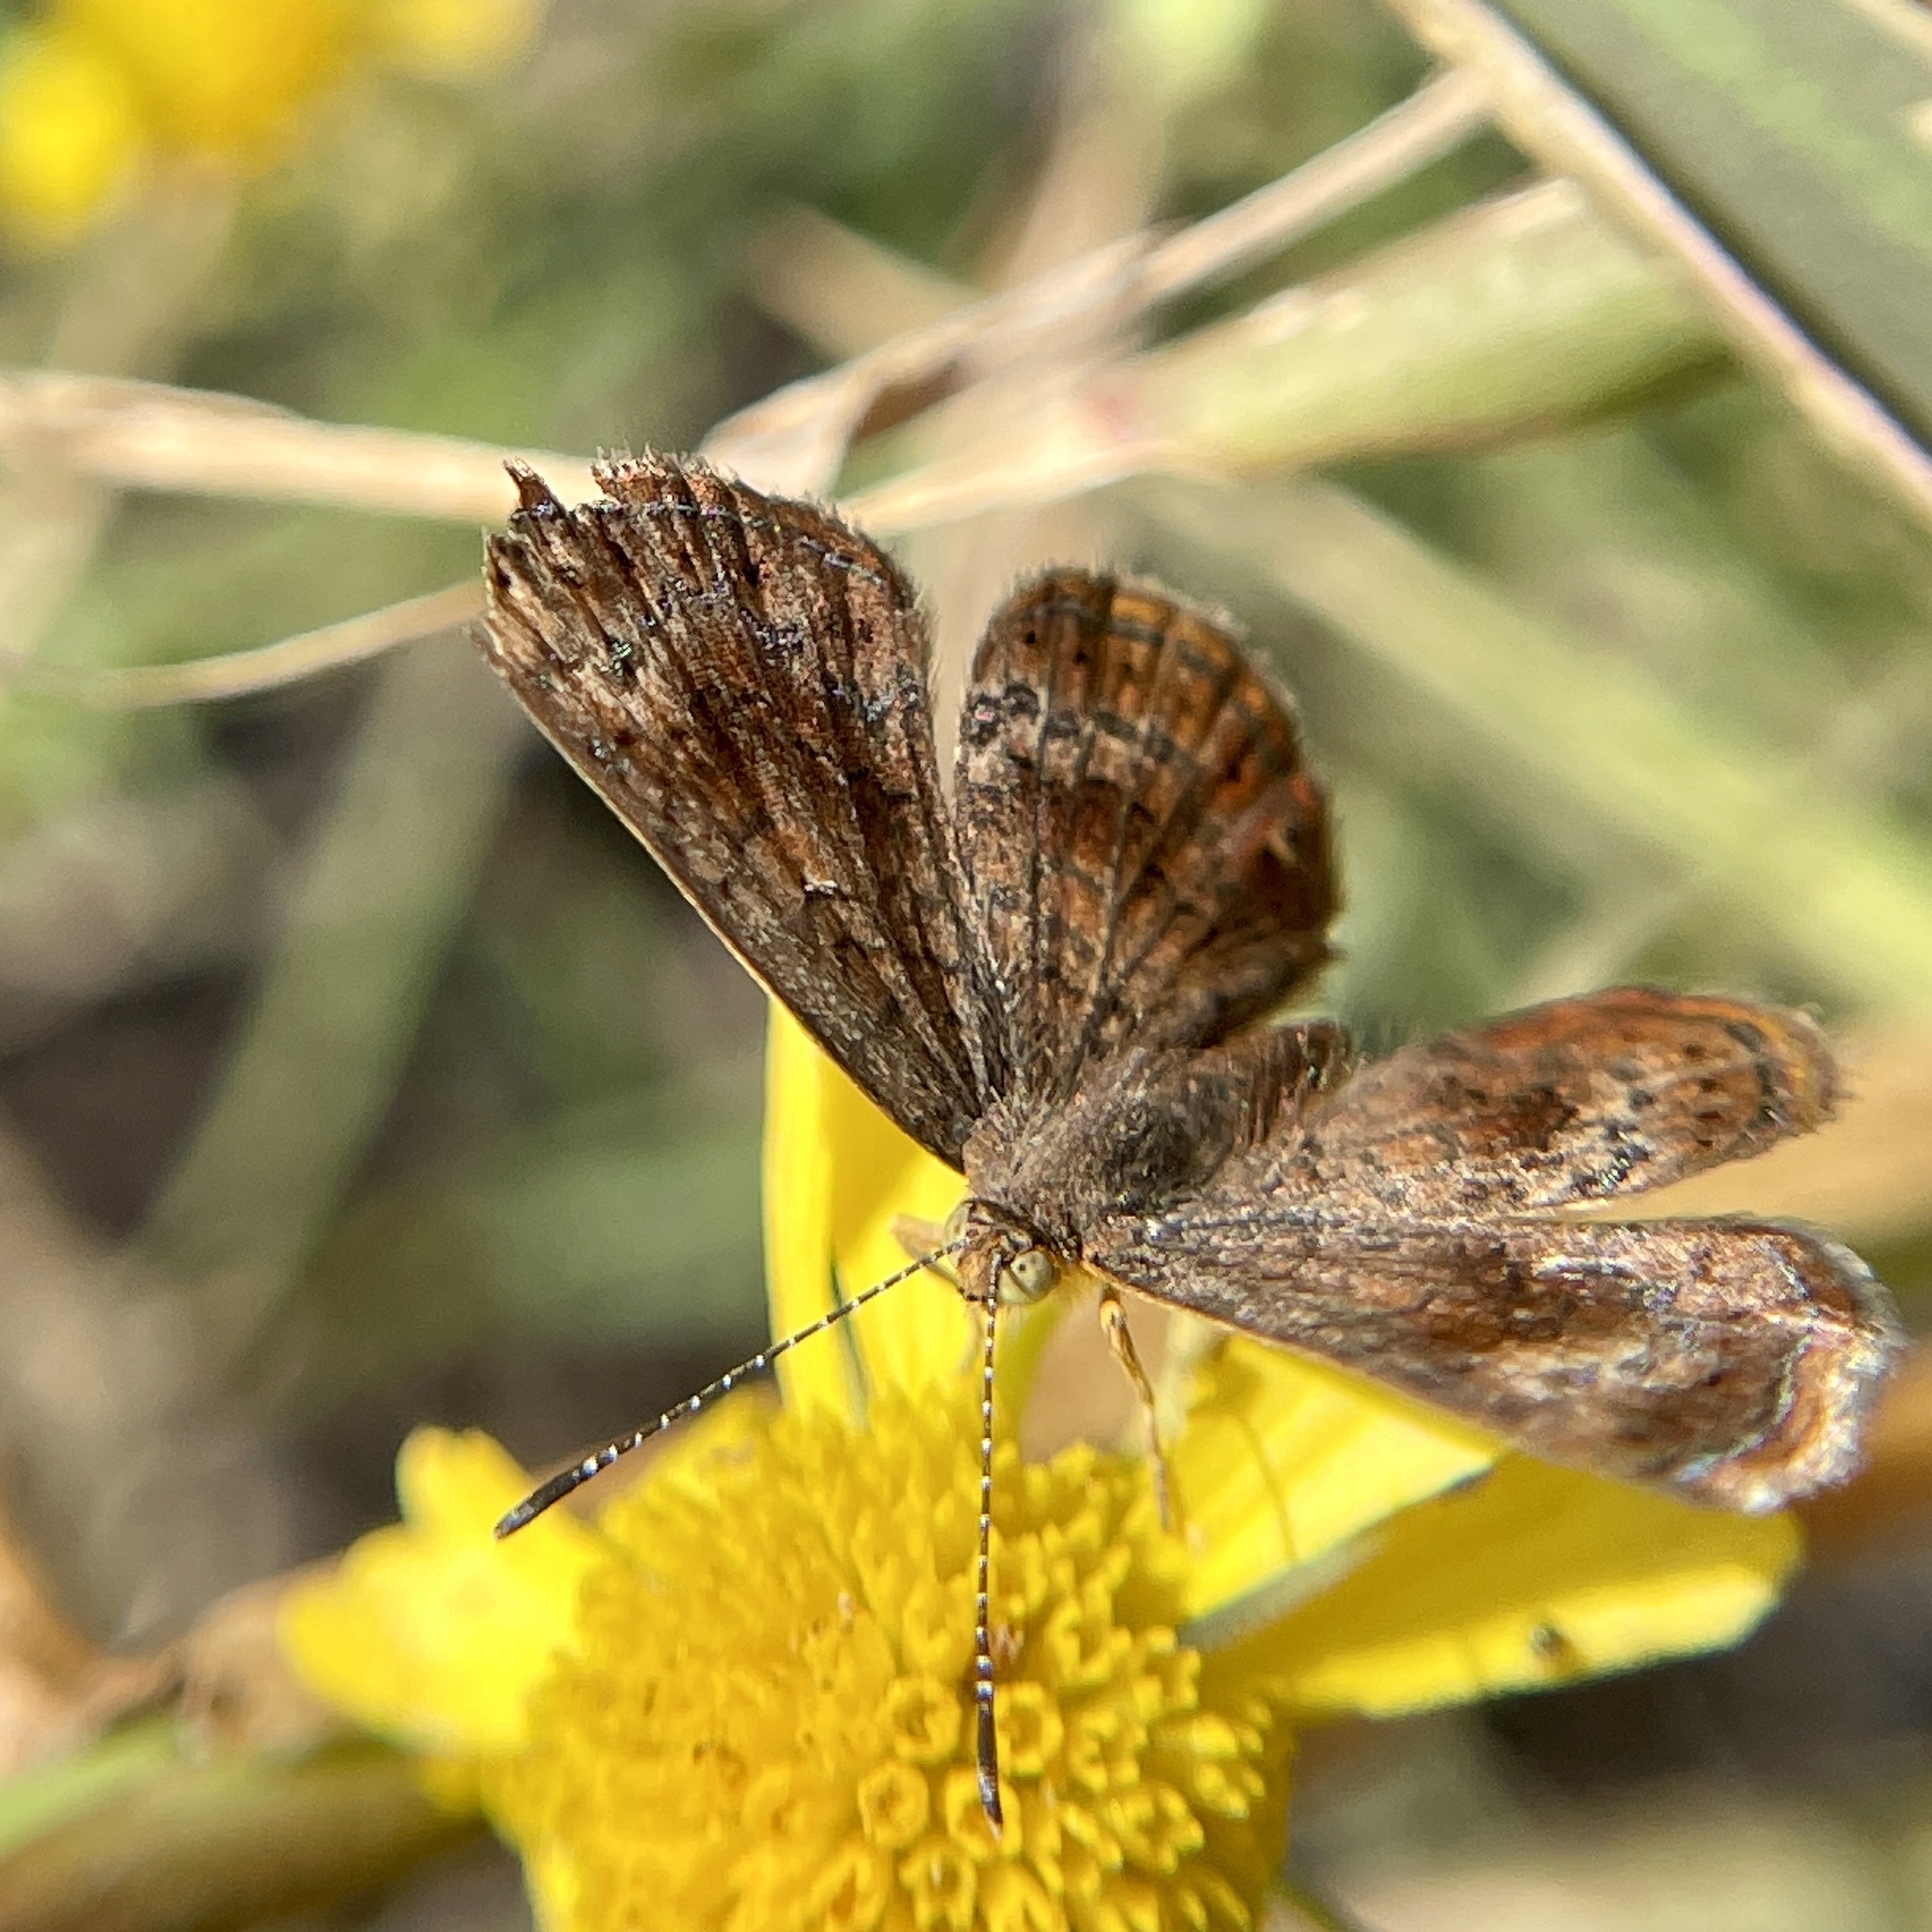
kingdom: Animalia
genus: Calephelis
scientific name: Calephelis perditalis
